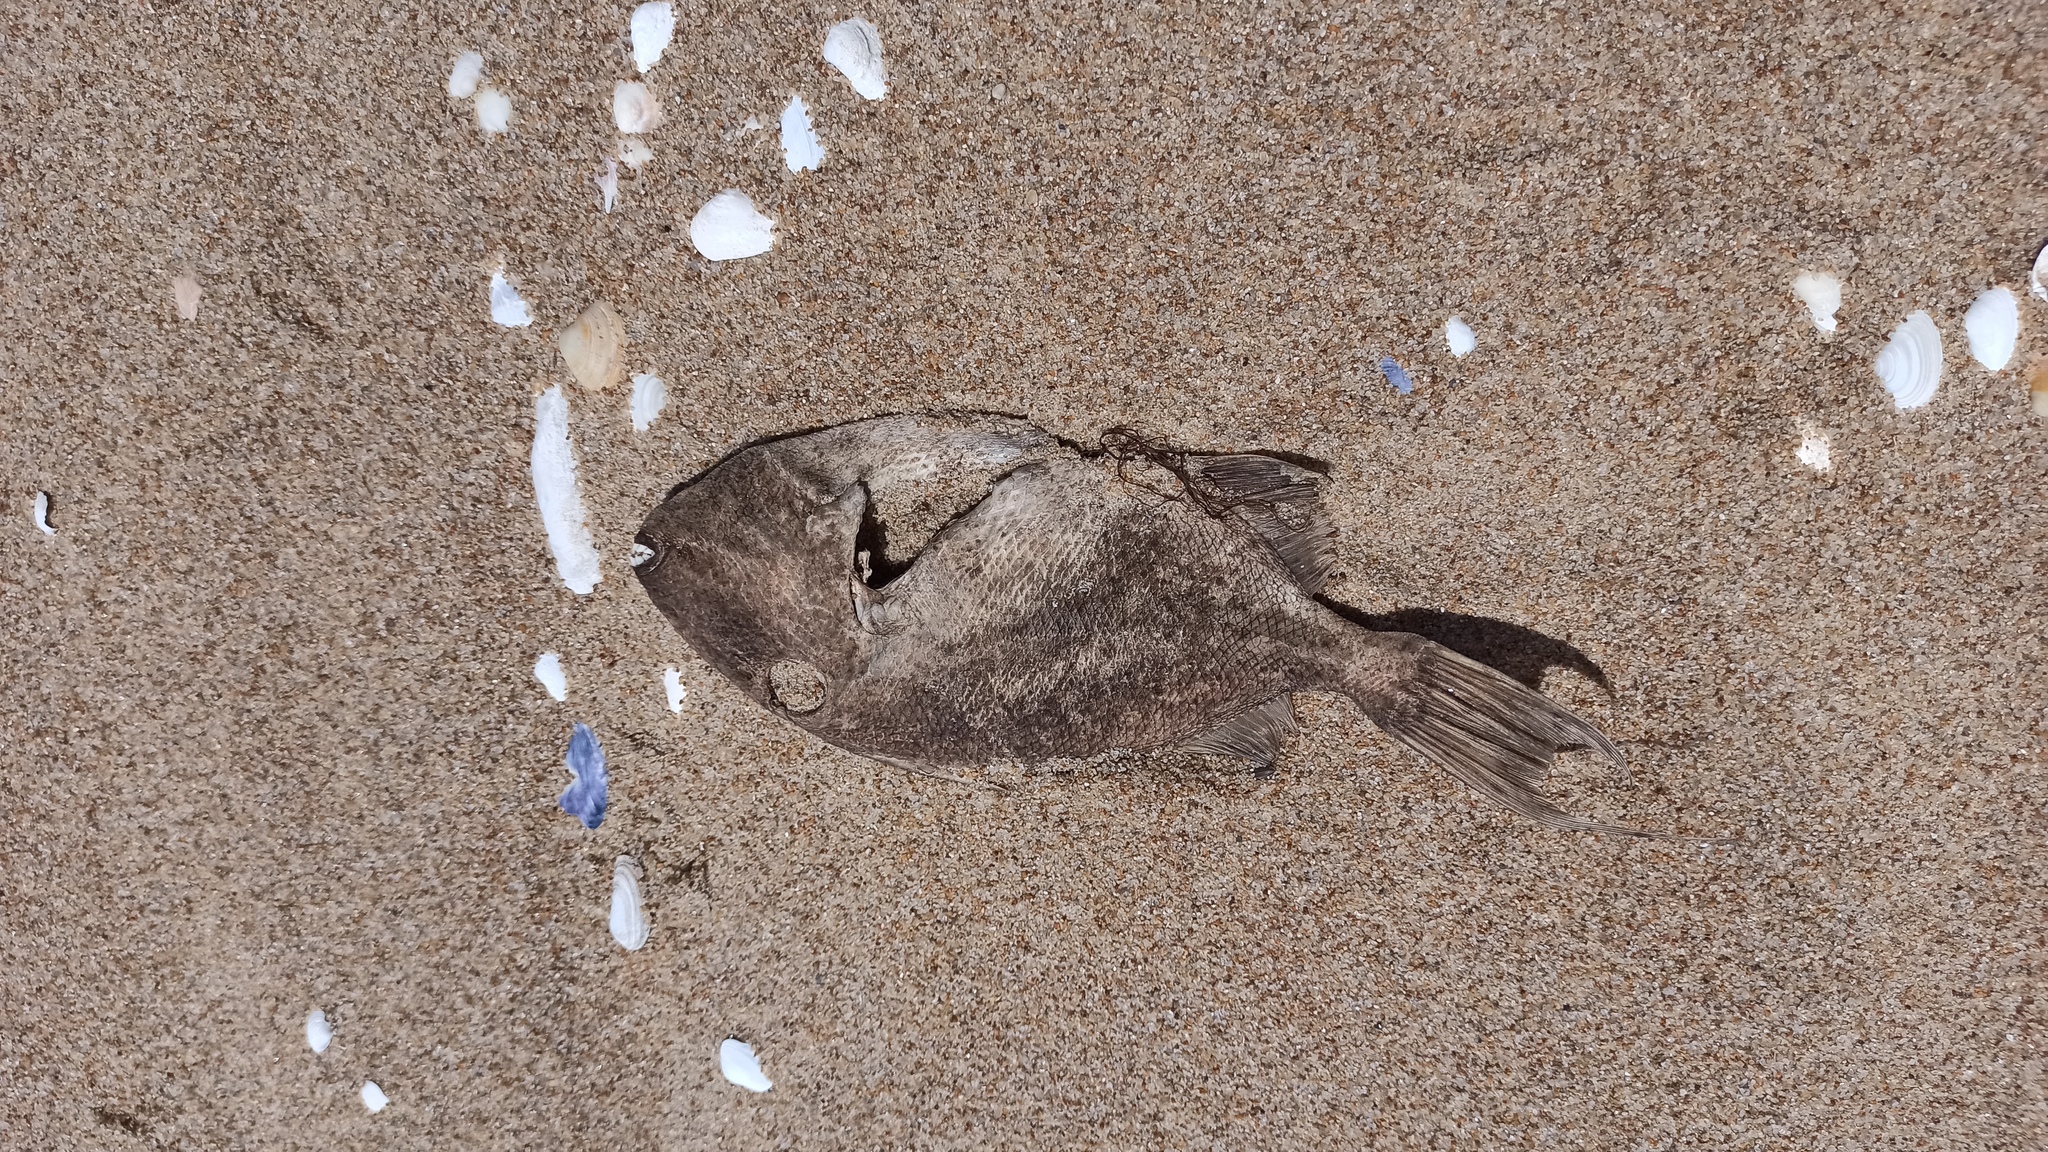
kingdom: Animalia
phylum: Chordata
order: Tetraodontiformes
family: Balistidae
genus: Balistes
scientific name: Balistes capriscus
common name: Grey triggerfish
